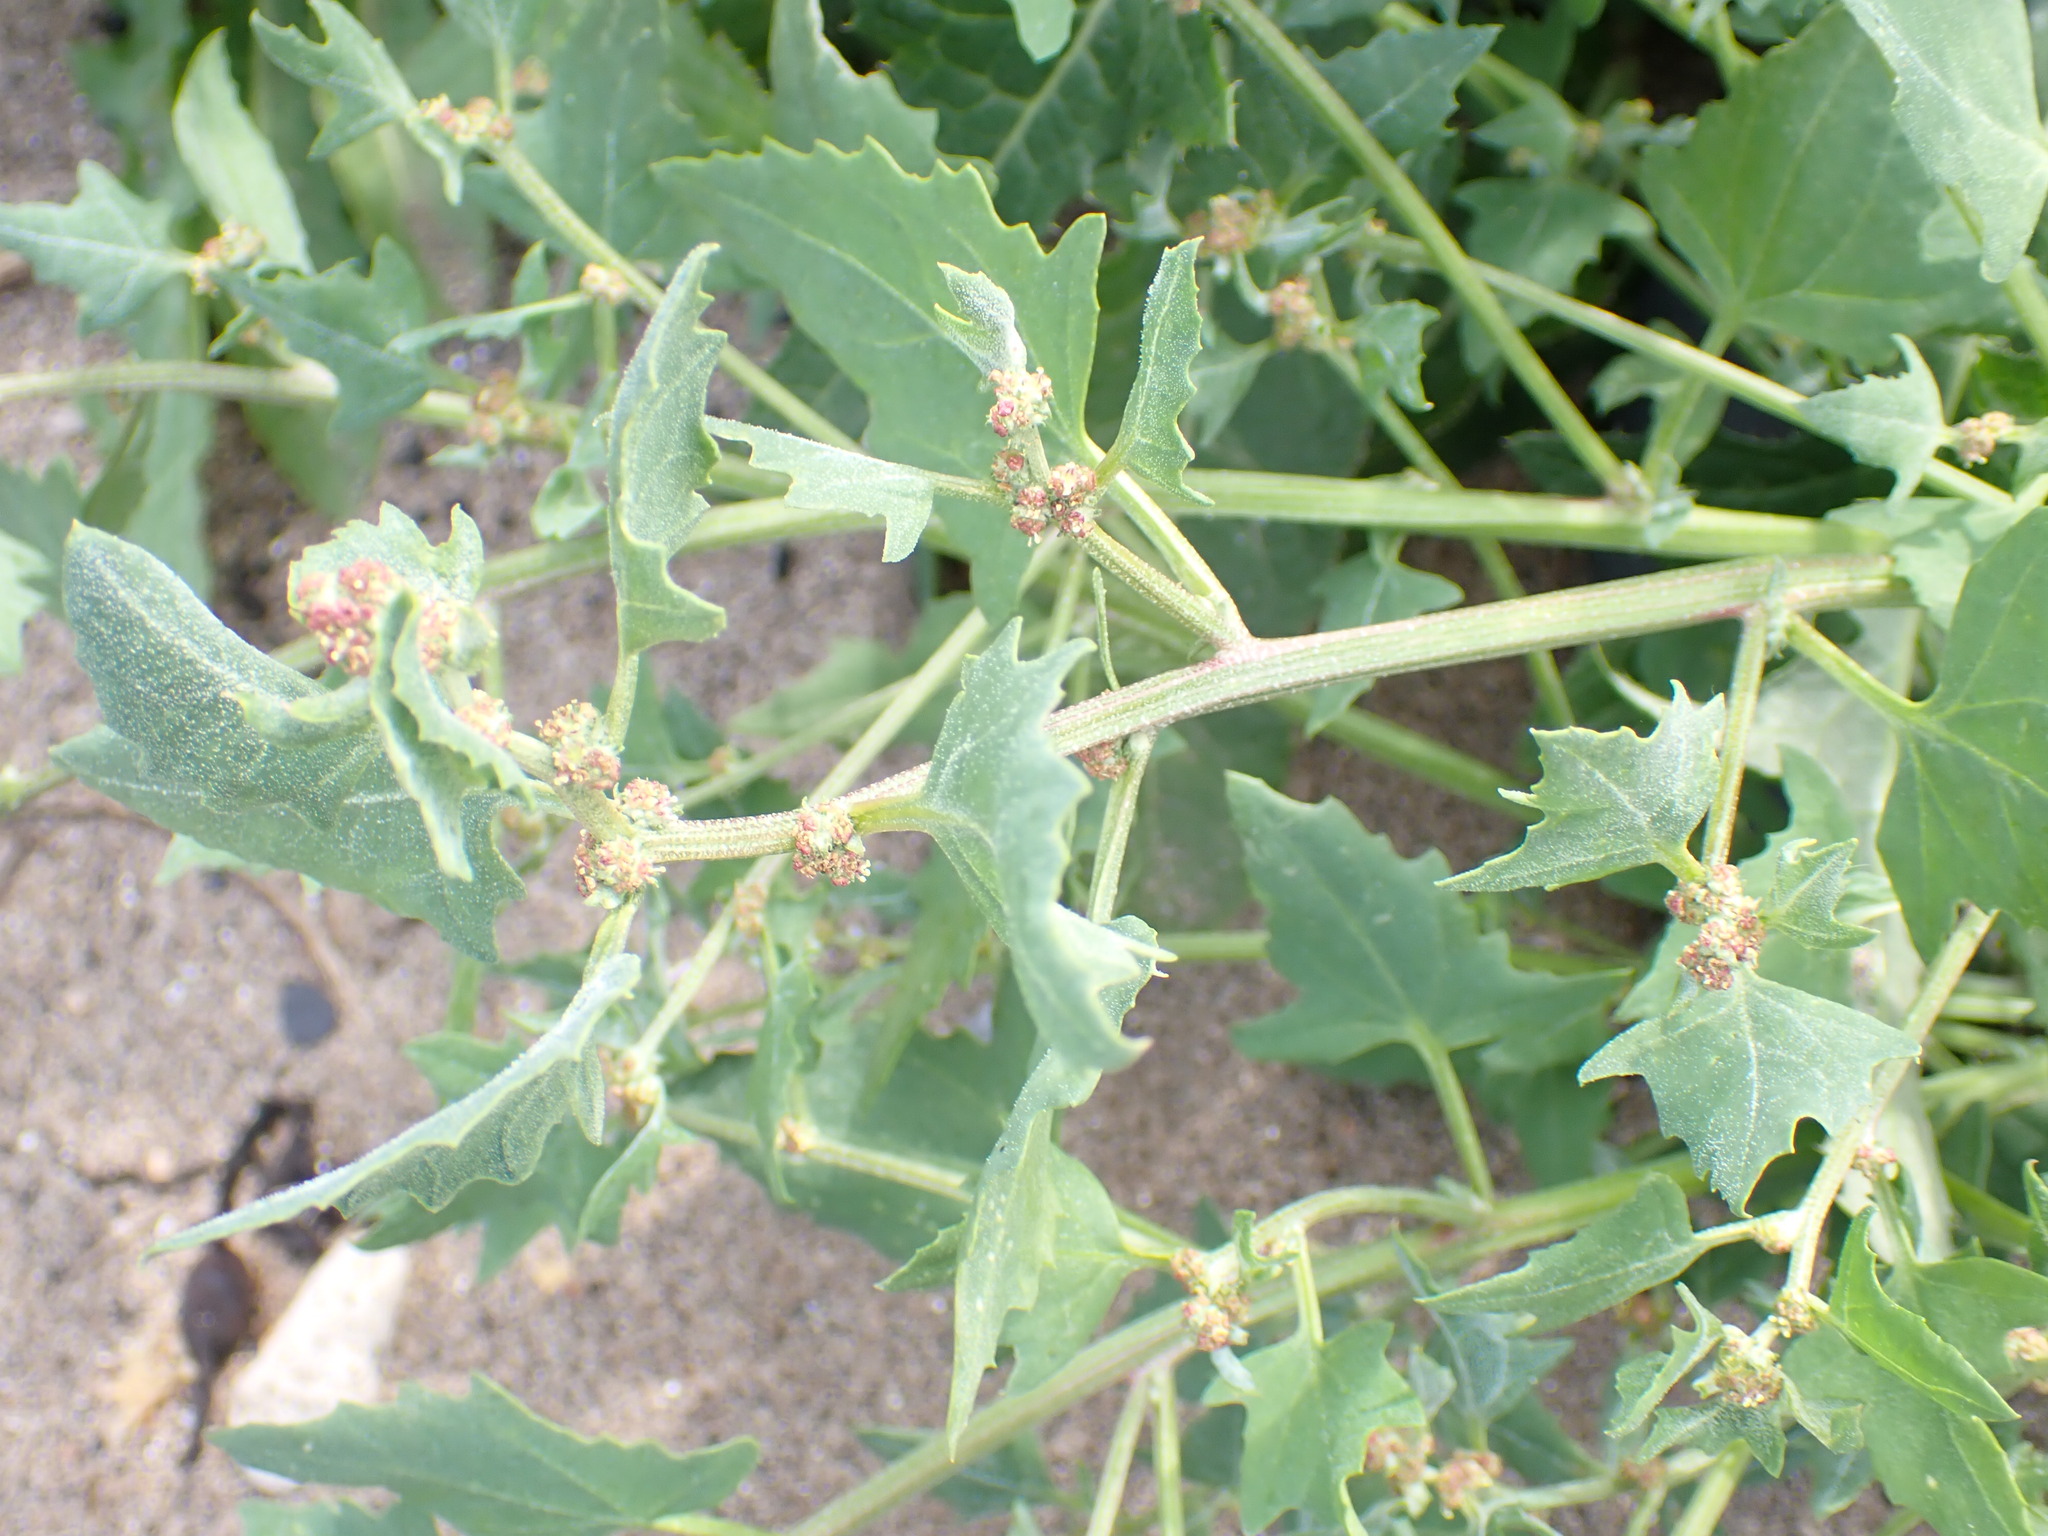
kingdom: Plantae
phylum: Tracheophyta
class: Magnoliopsida
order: Caryophyllales
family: Amaranthaceae
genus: Atriplex
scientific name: Atriplex prostrata
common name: Spear-leaved orache
